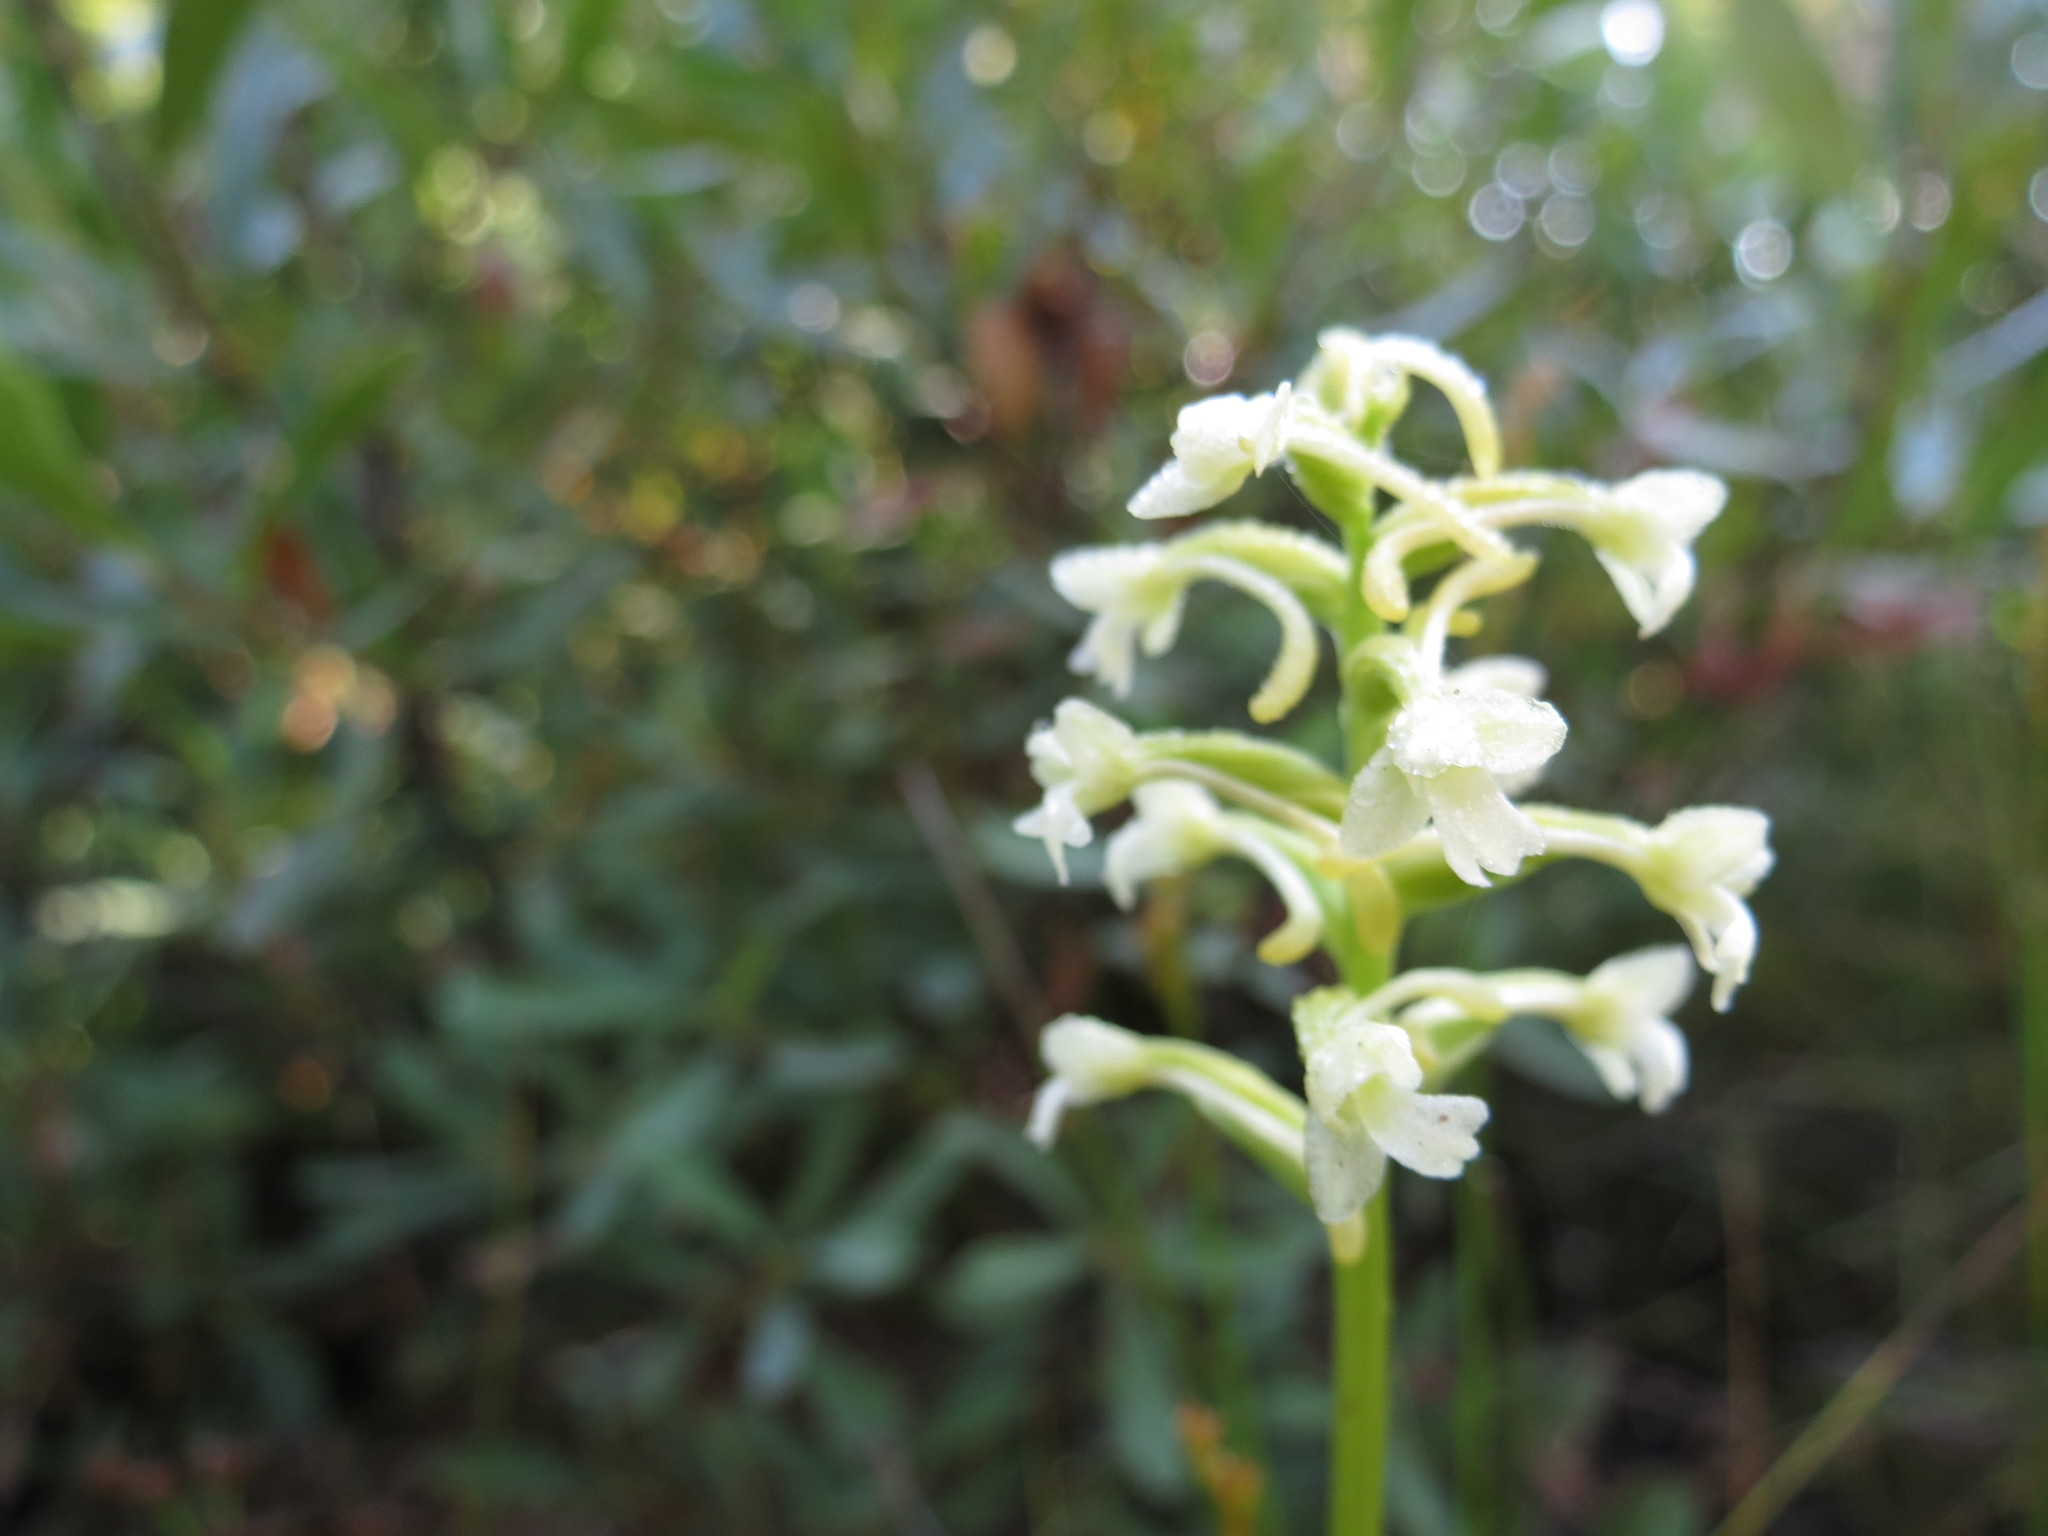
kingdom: Plantae
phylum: Tracheophyta
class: Liliopsida
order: Asparagales
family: Orchidaceae
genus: Platanthera
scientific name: Platanthera clavellata
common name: Club-spur orchid
